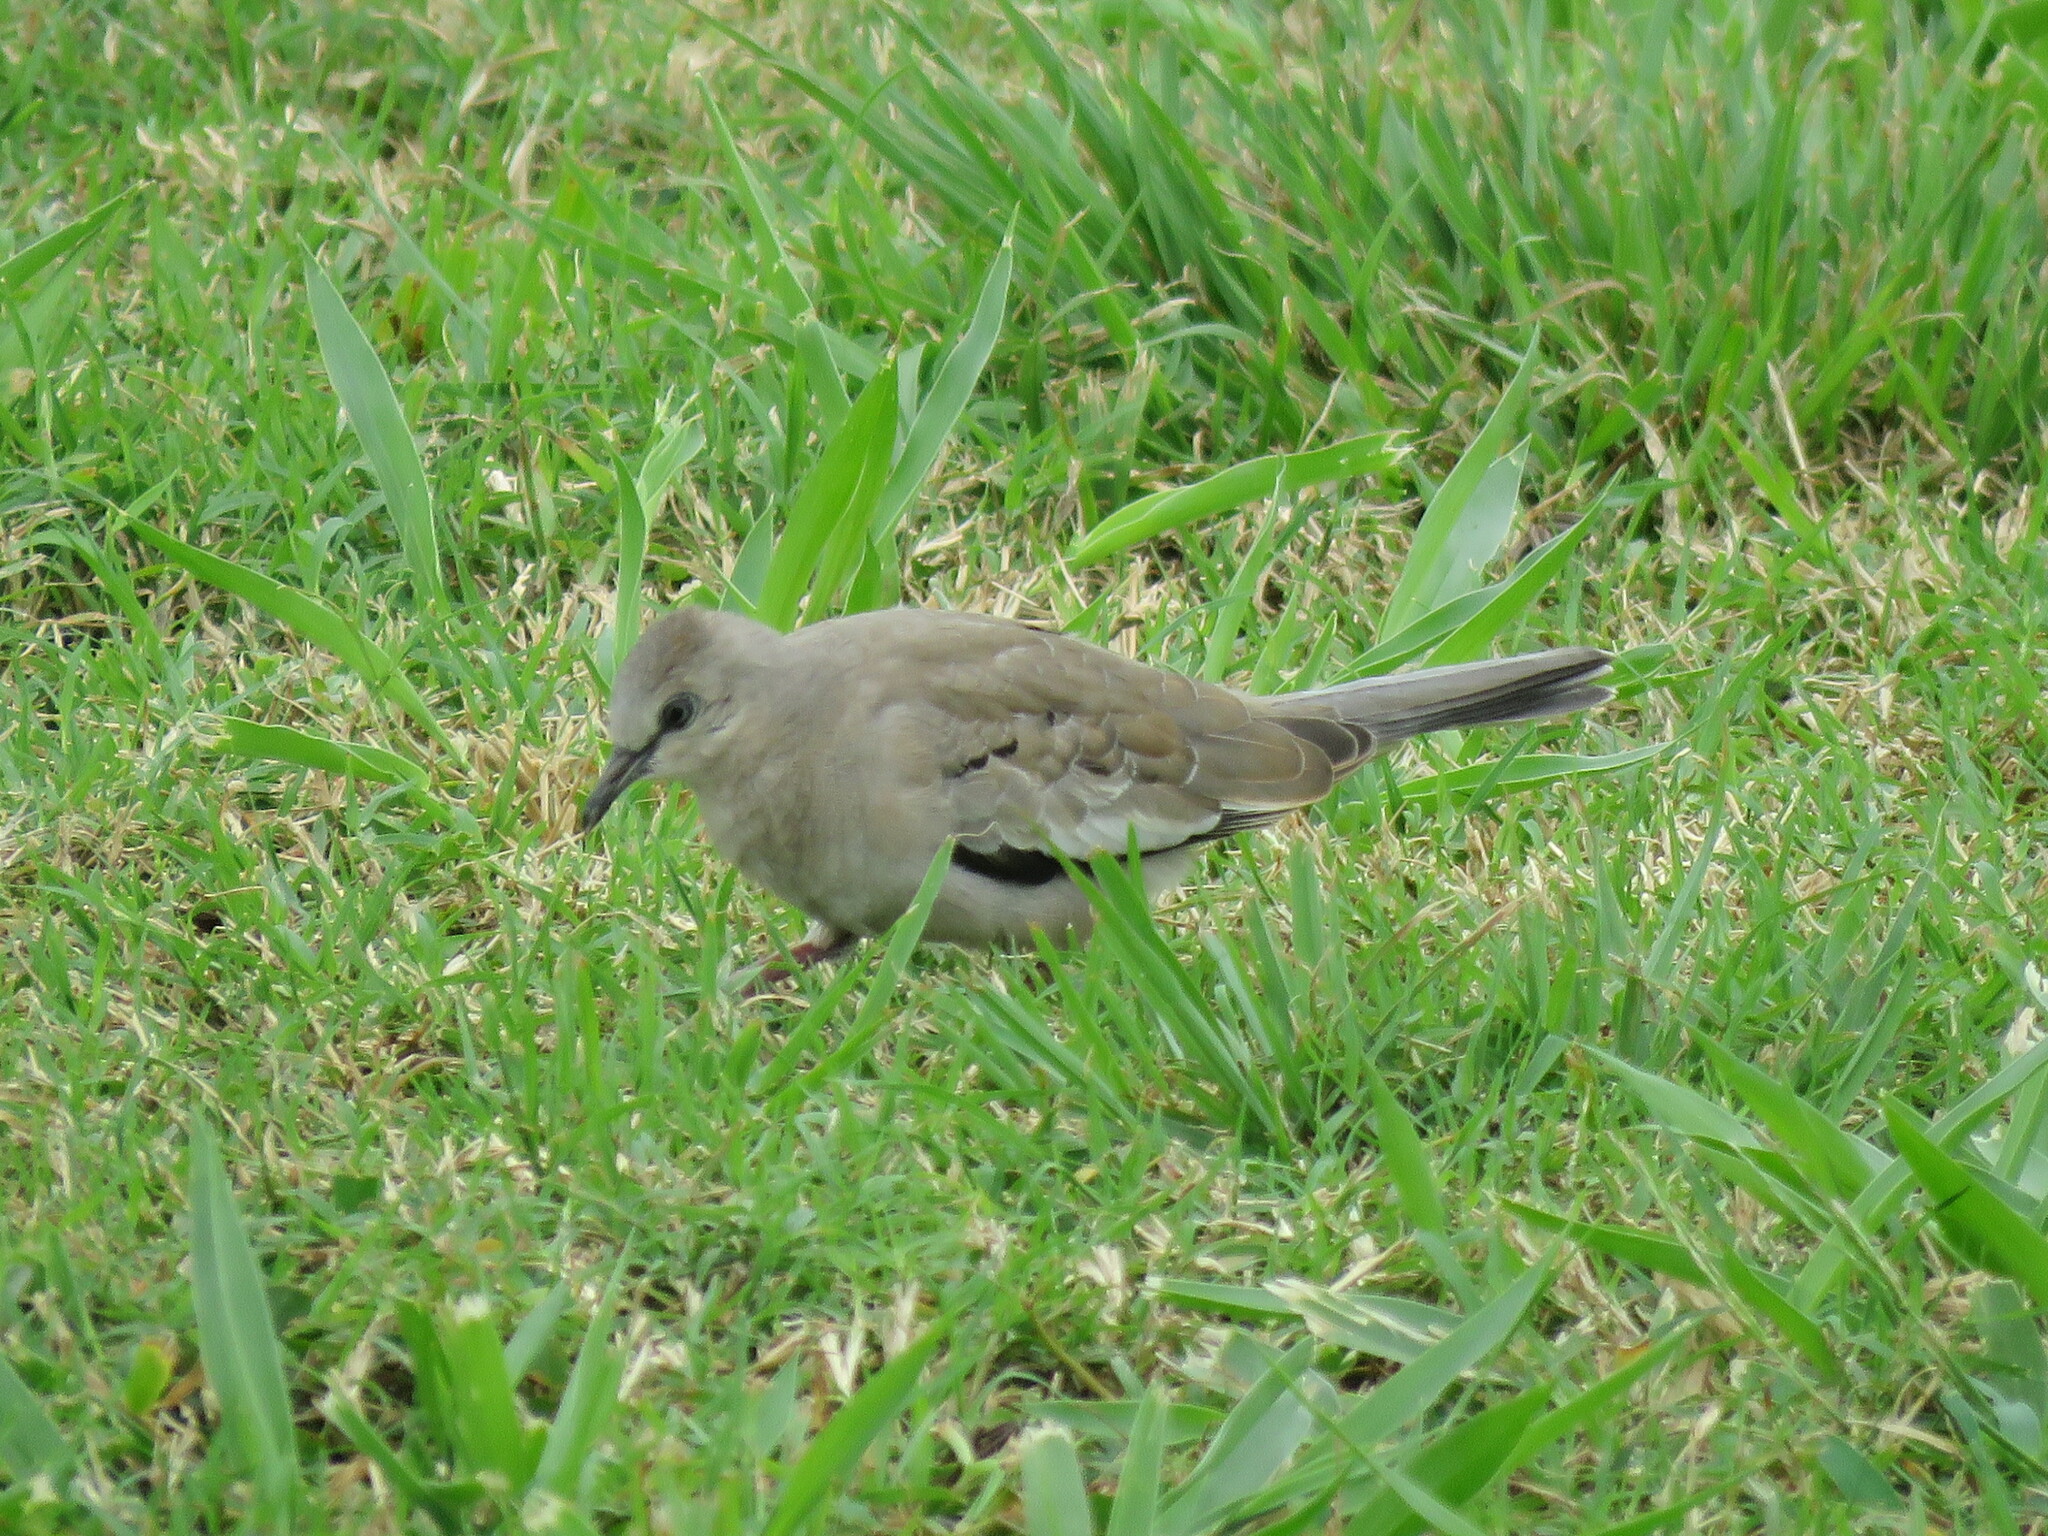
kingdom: Animalia
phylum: Chordata
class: Aves
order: Columbiformes
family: Columbidae
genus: Columbina
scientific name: Columbina picui
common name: Picui ground dove
